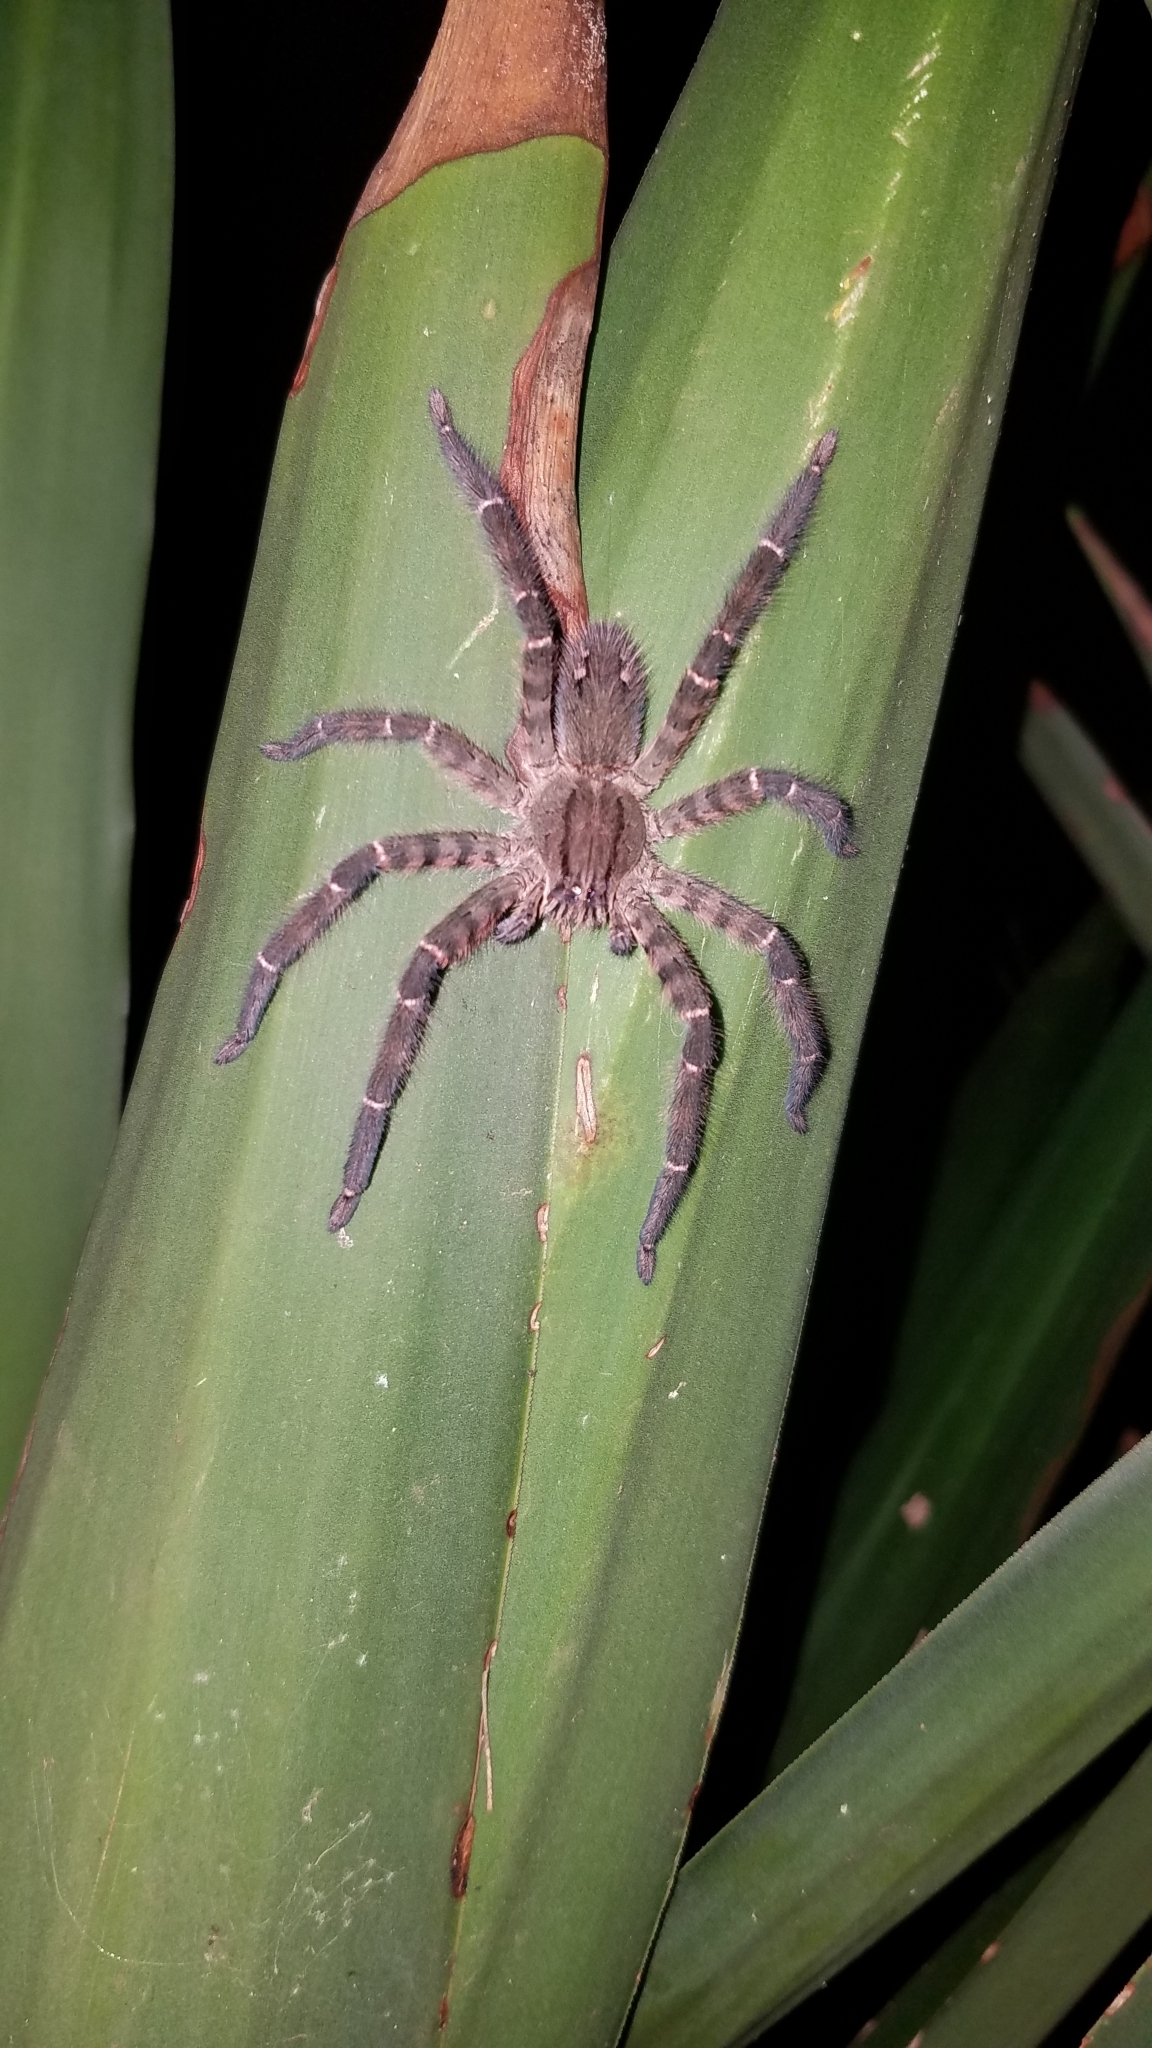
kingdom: Animalia
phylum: Arthropoda
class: Arachnida
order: Araneae
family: Trechaleidae
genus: Cupiennius
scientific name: Cupiennius salei
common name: Wandering spiders
